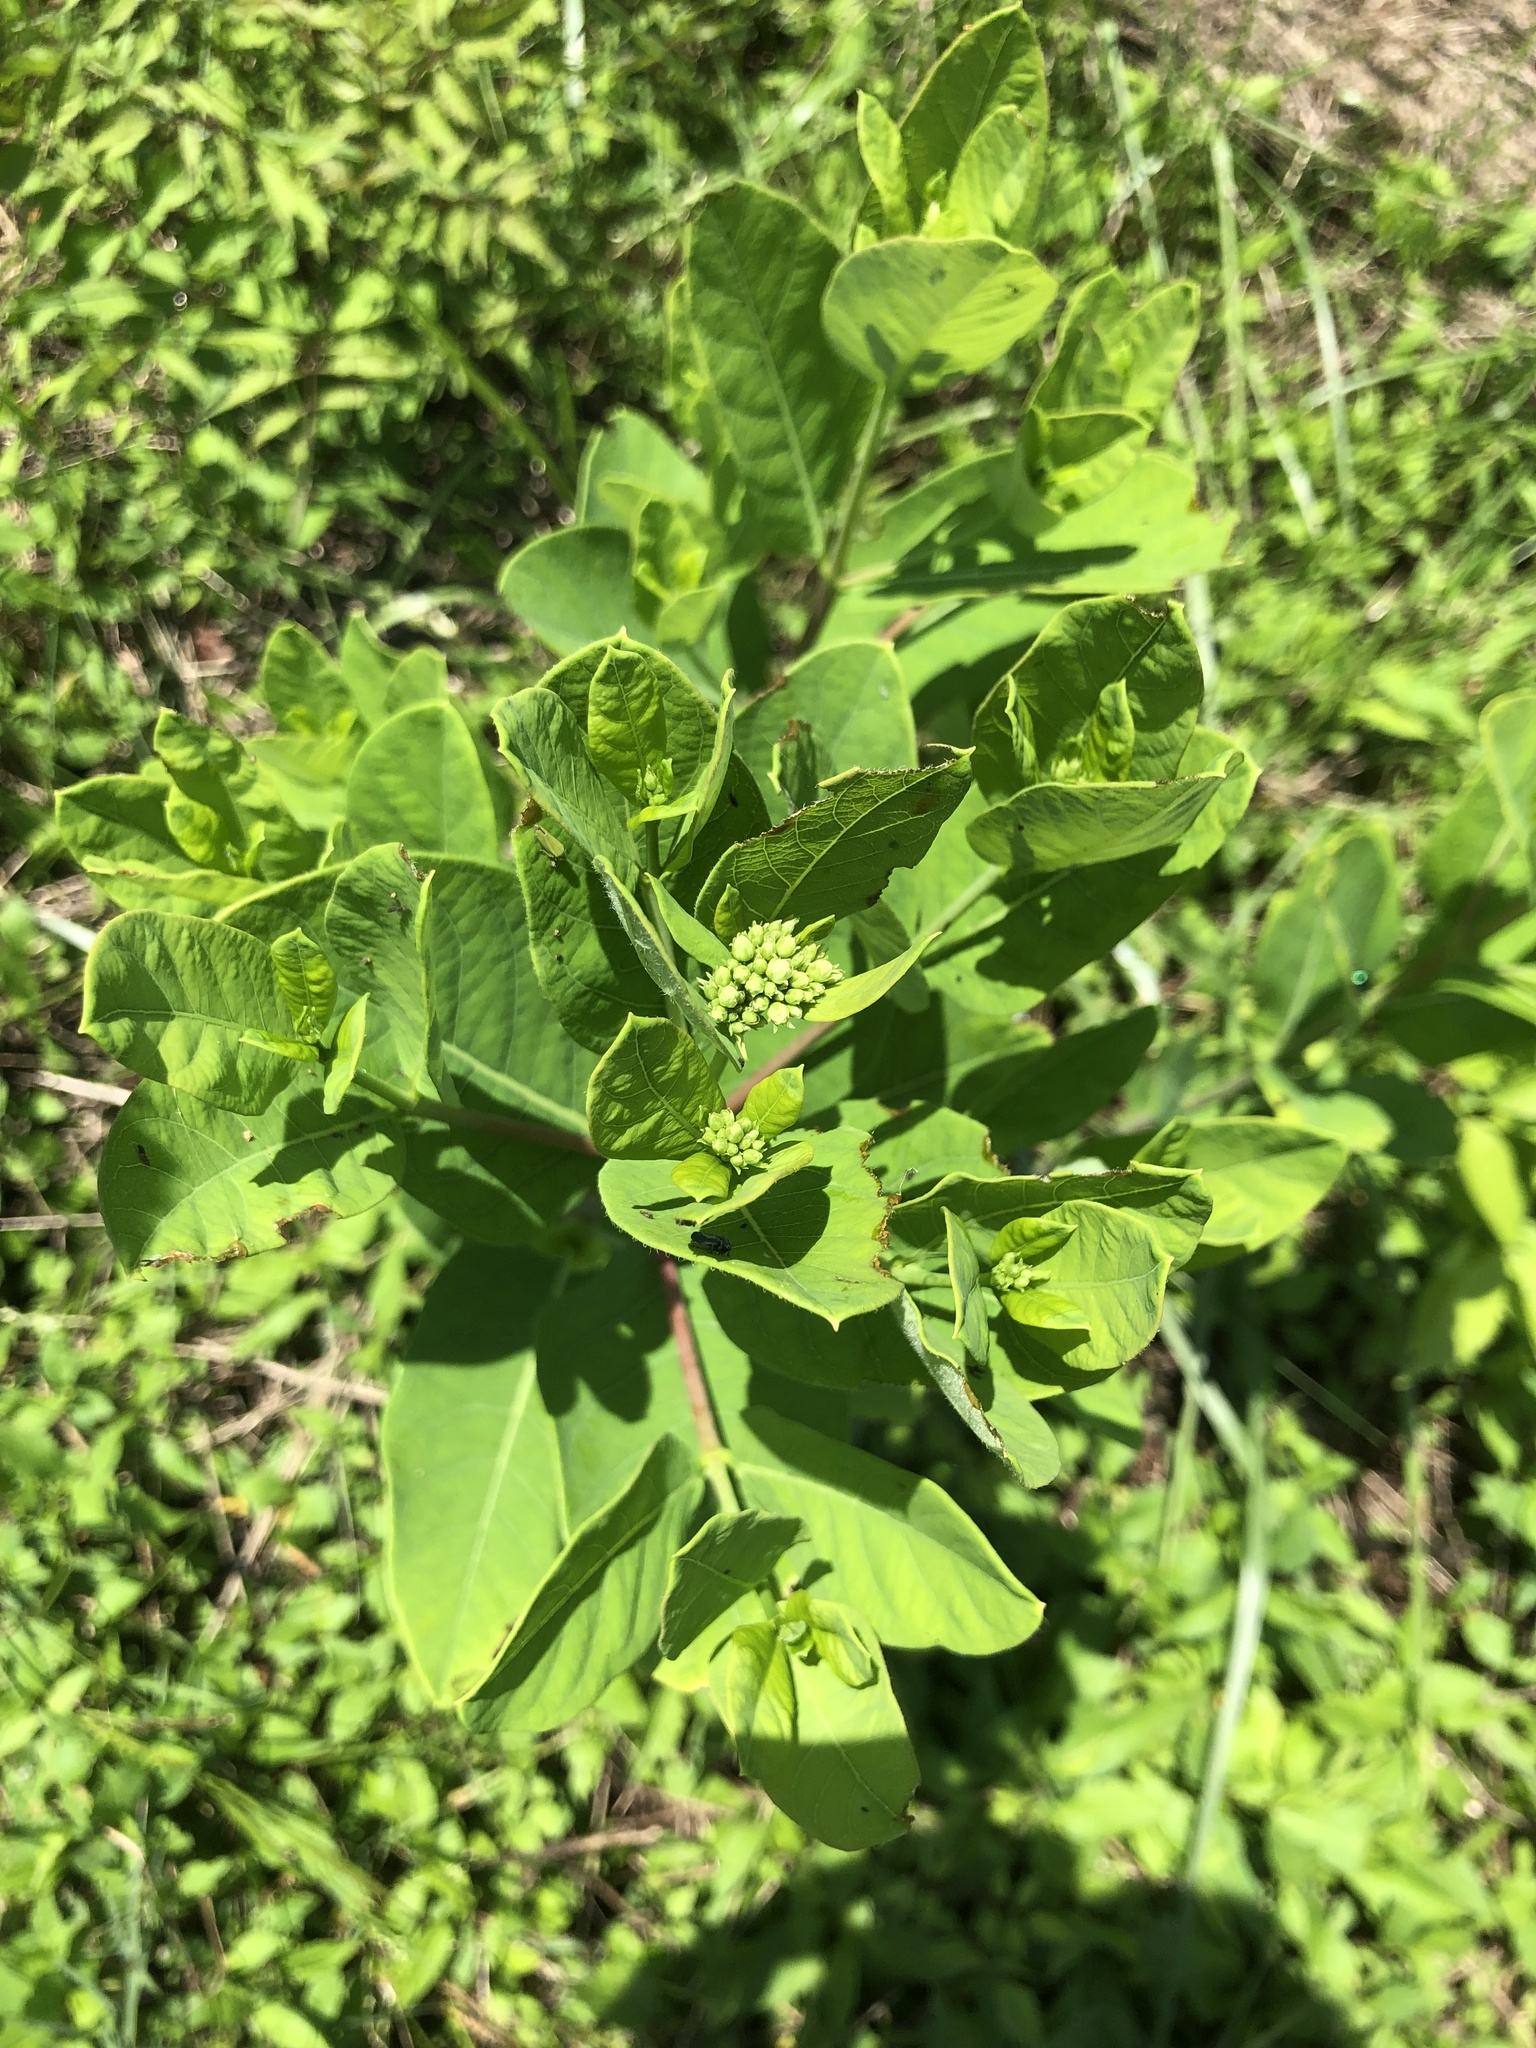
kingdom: Plantae
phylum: Tracheophyta
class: Magnoliopsida
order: Gentianales
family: Apocynaceae
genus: Apocynum
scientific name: Apocynum cannabinum
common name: Hemp dogbane
